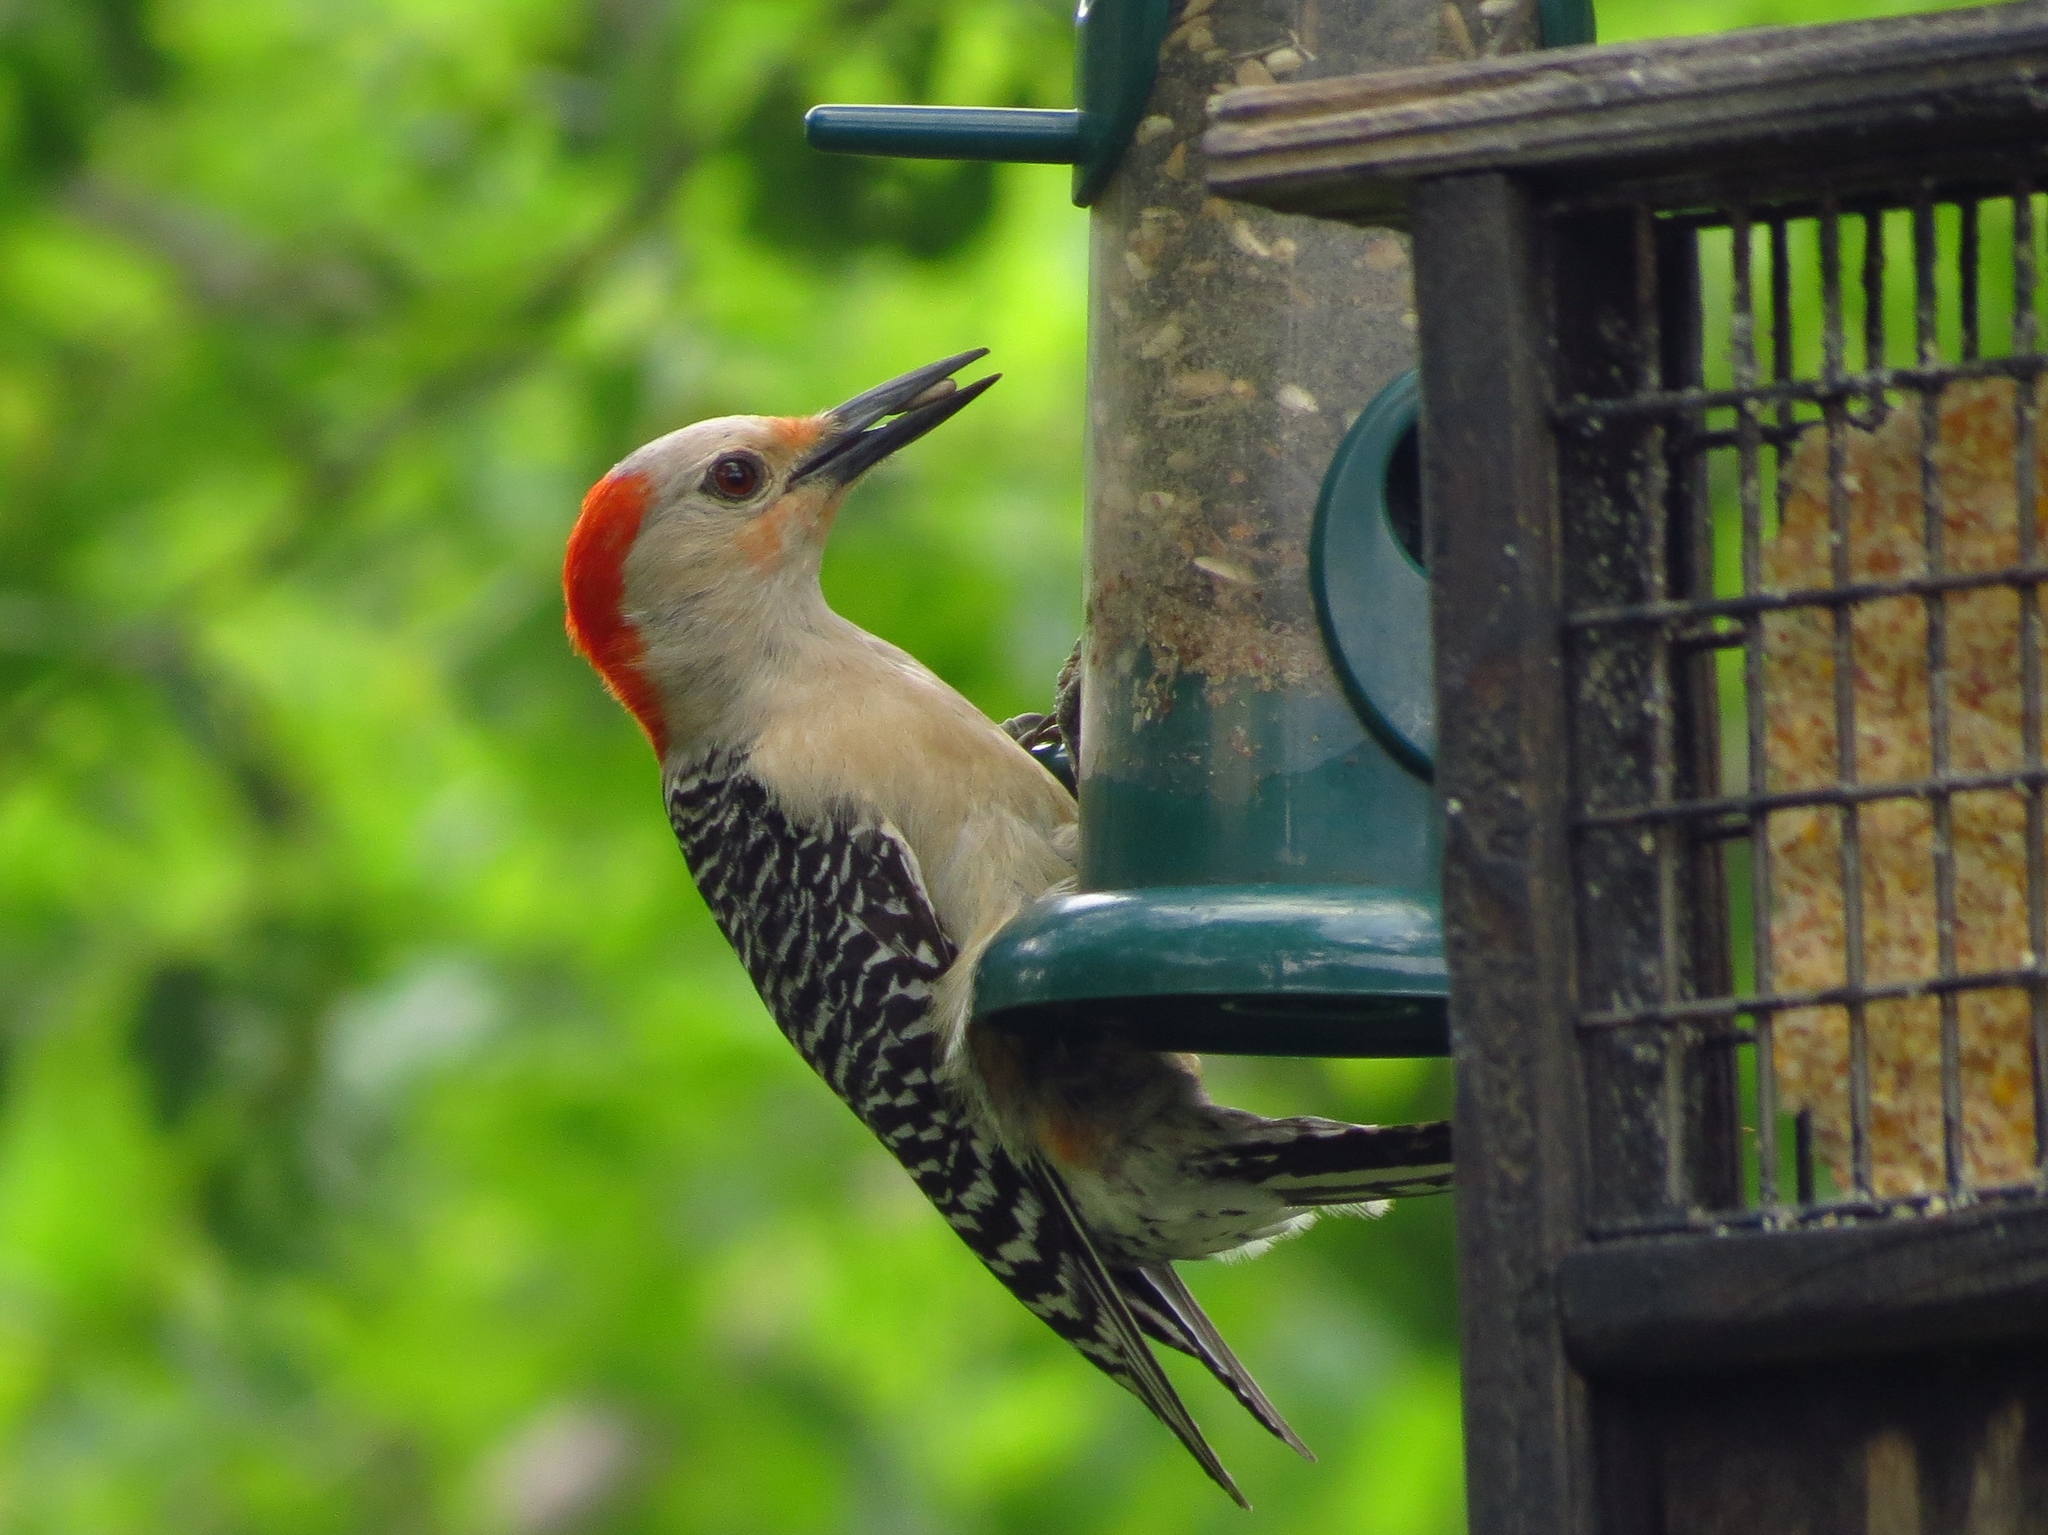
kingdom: Animalia
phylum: Chordata
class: Aves
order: Piciformes
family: Picidae
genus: Melanerpes
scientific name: Melanerpes carolinus
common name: Red-bellied woodpecker
